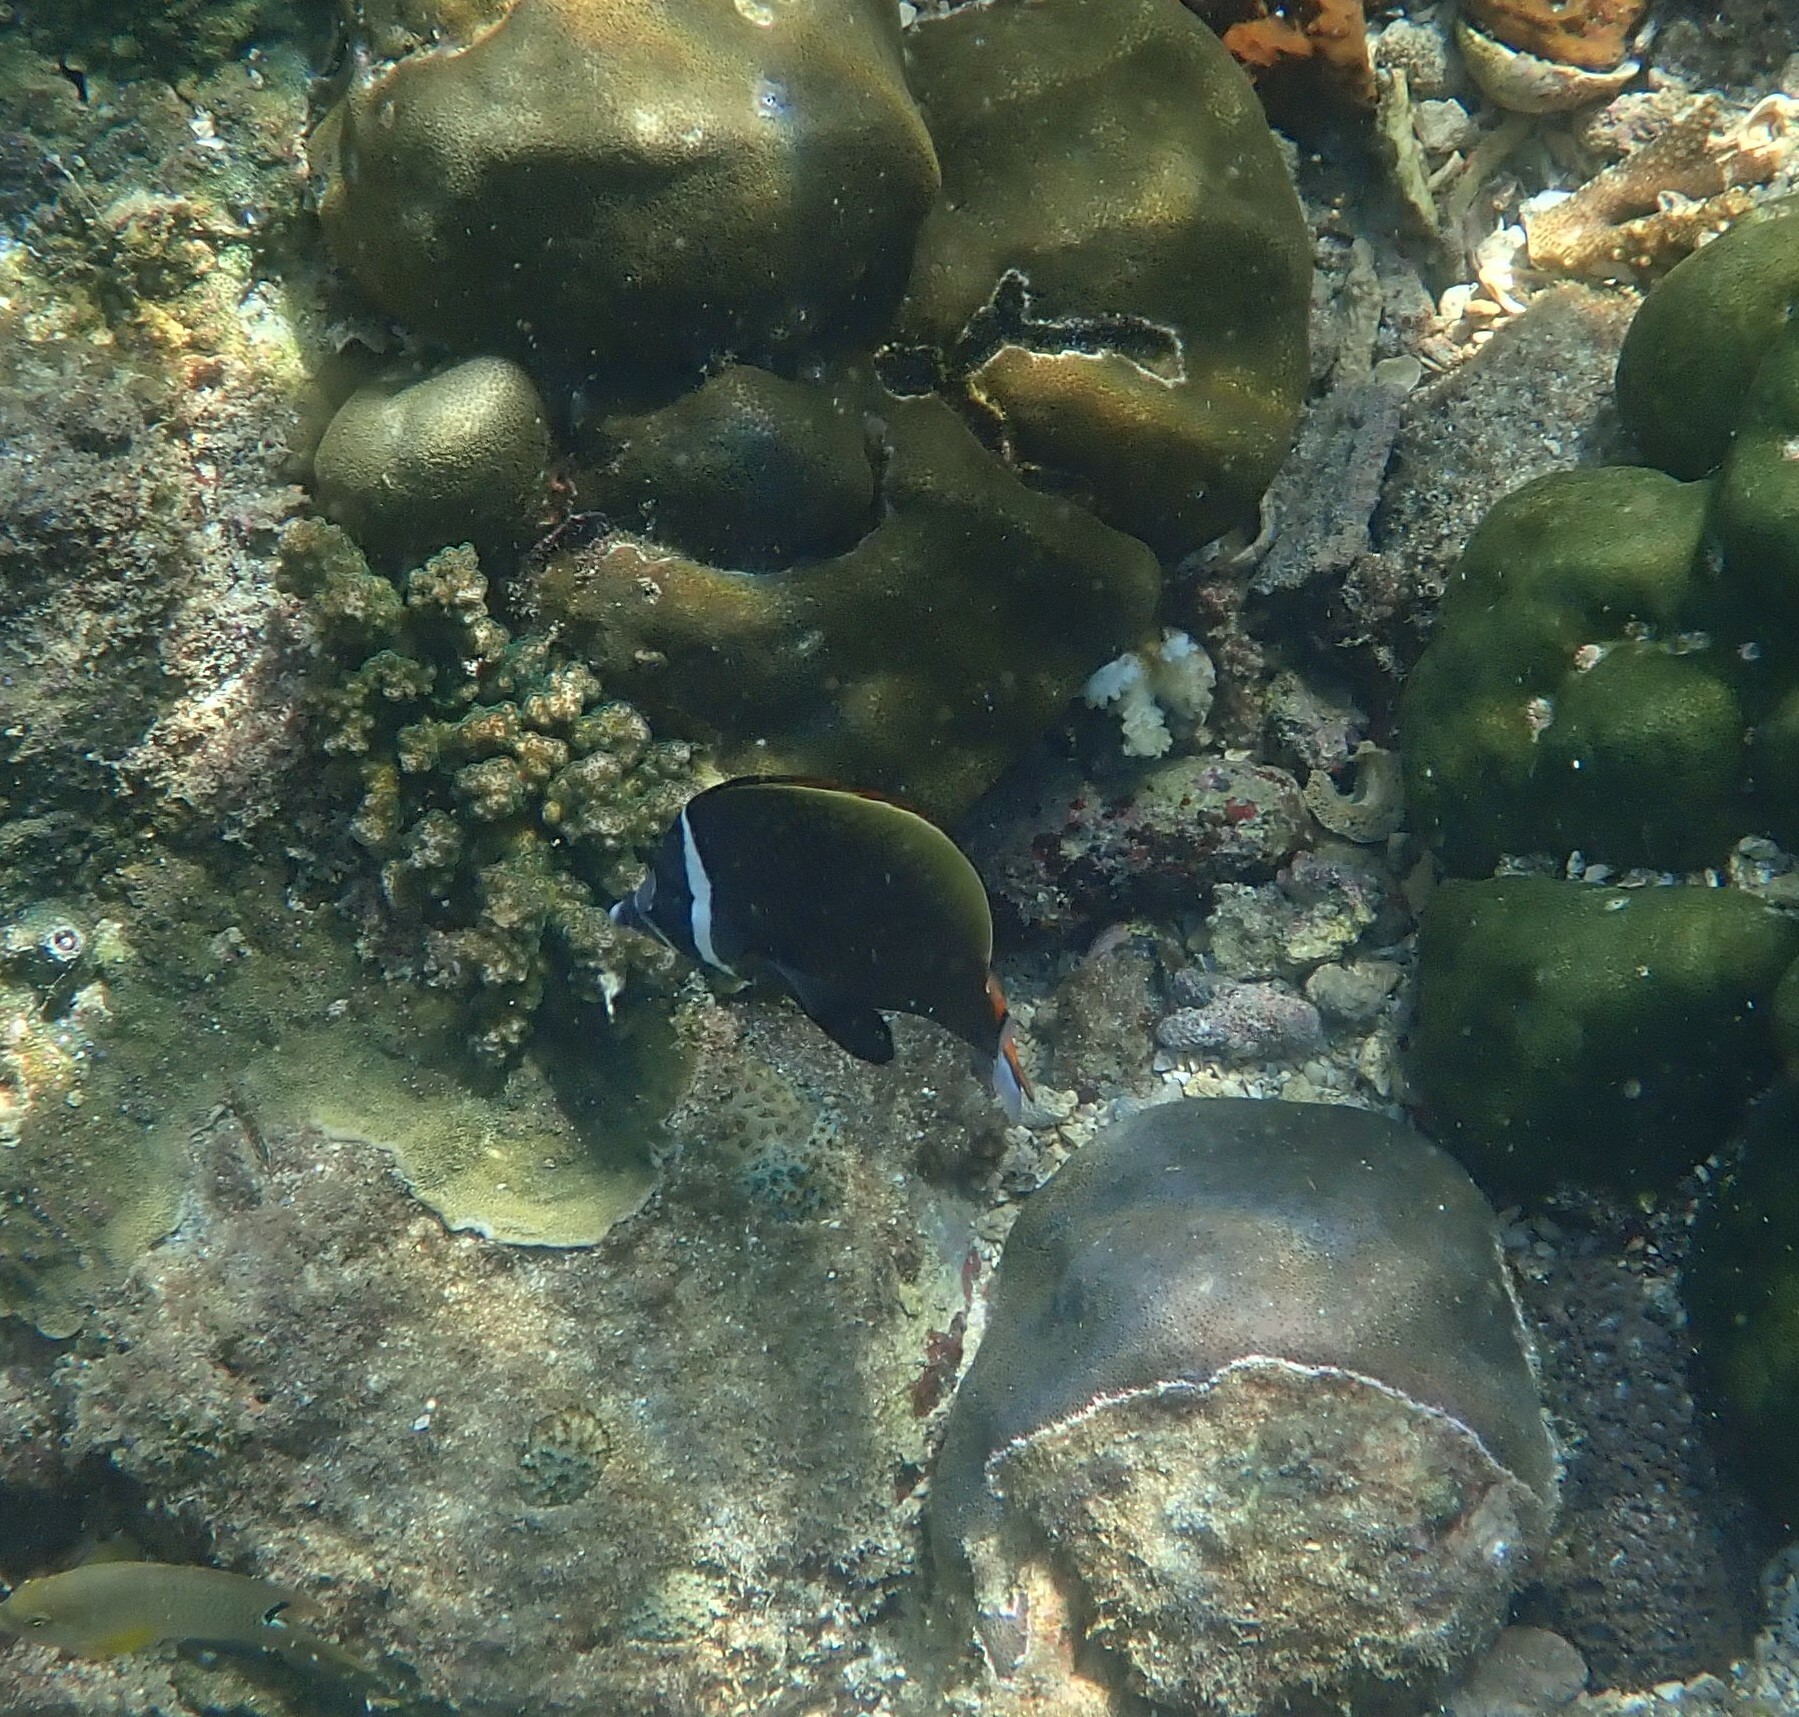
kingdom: Animalia
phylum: Chordata
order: Perciformes
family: Chaetodontidae
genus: Chaetodon
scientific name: Chaetodon collare
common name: Redtail butterflyfish
